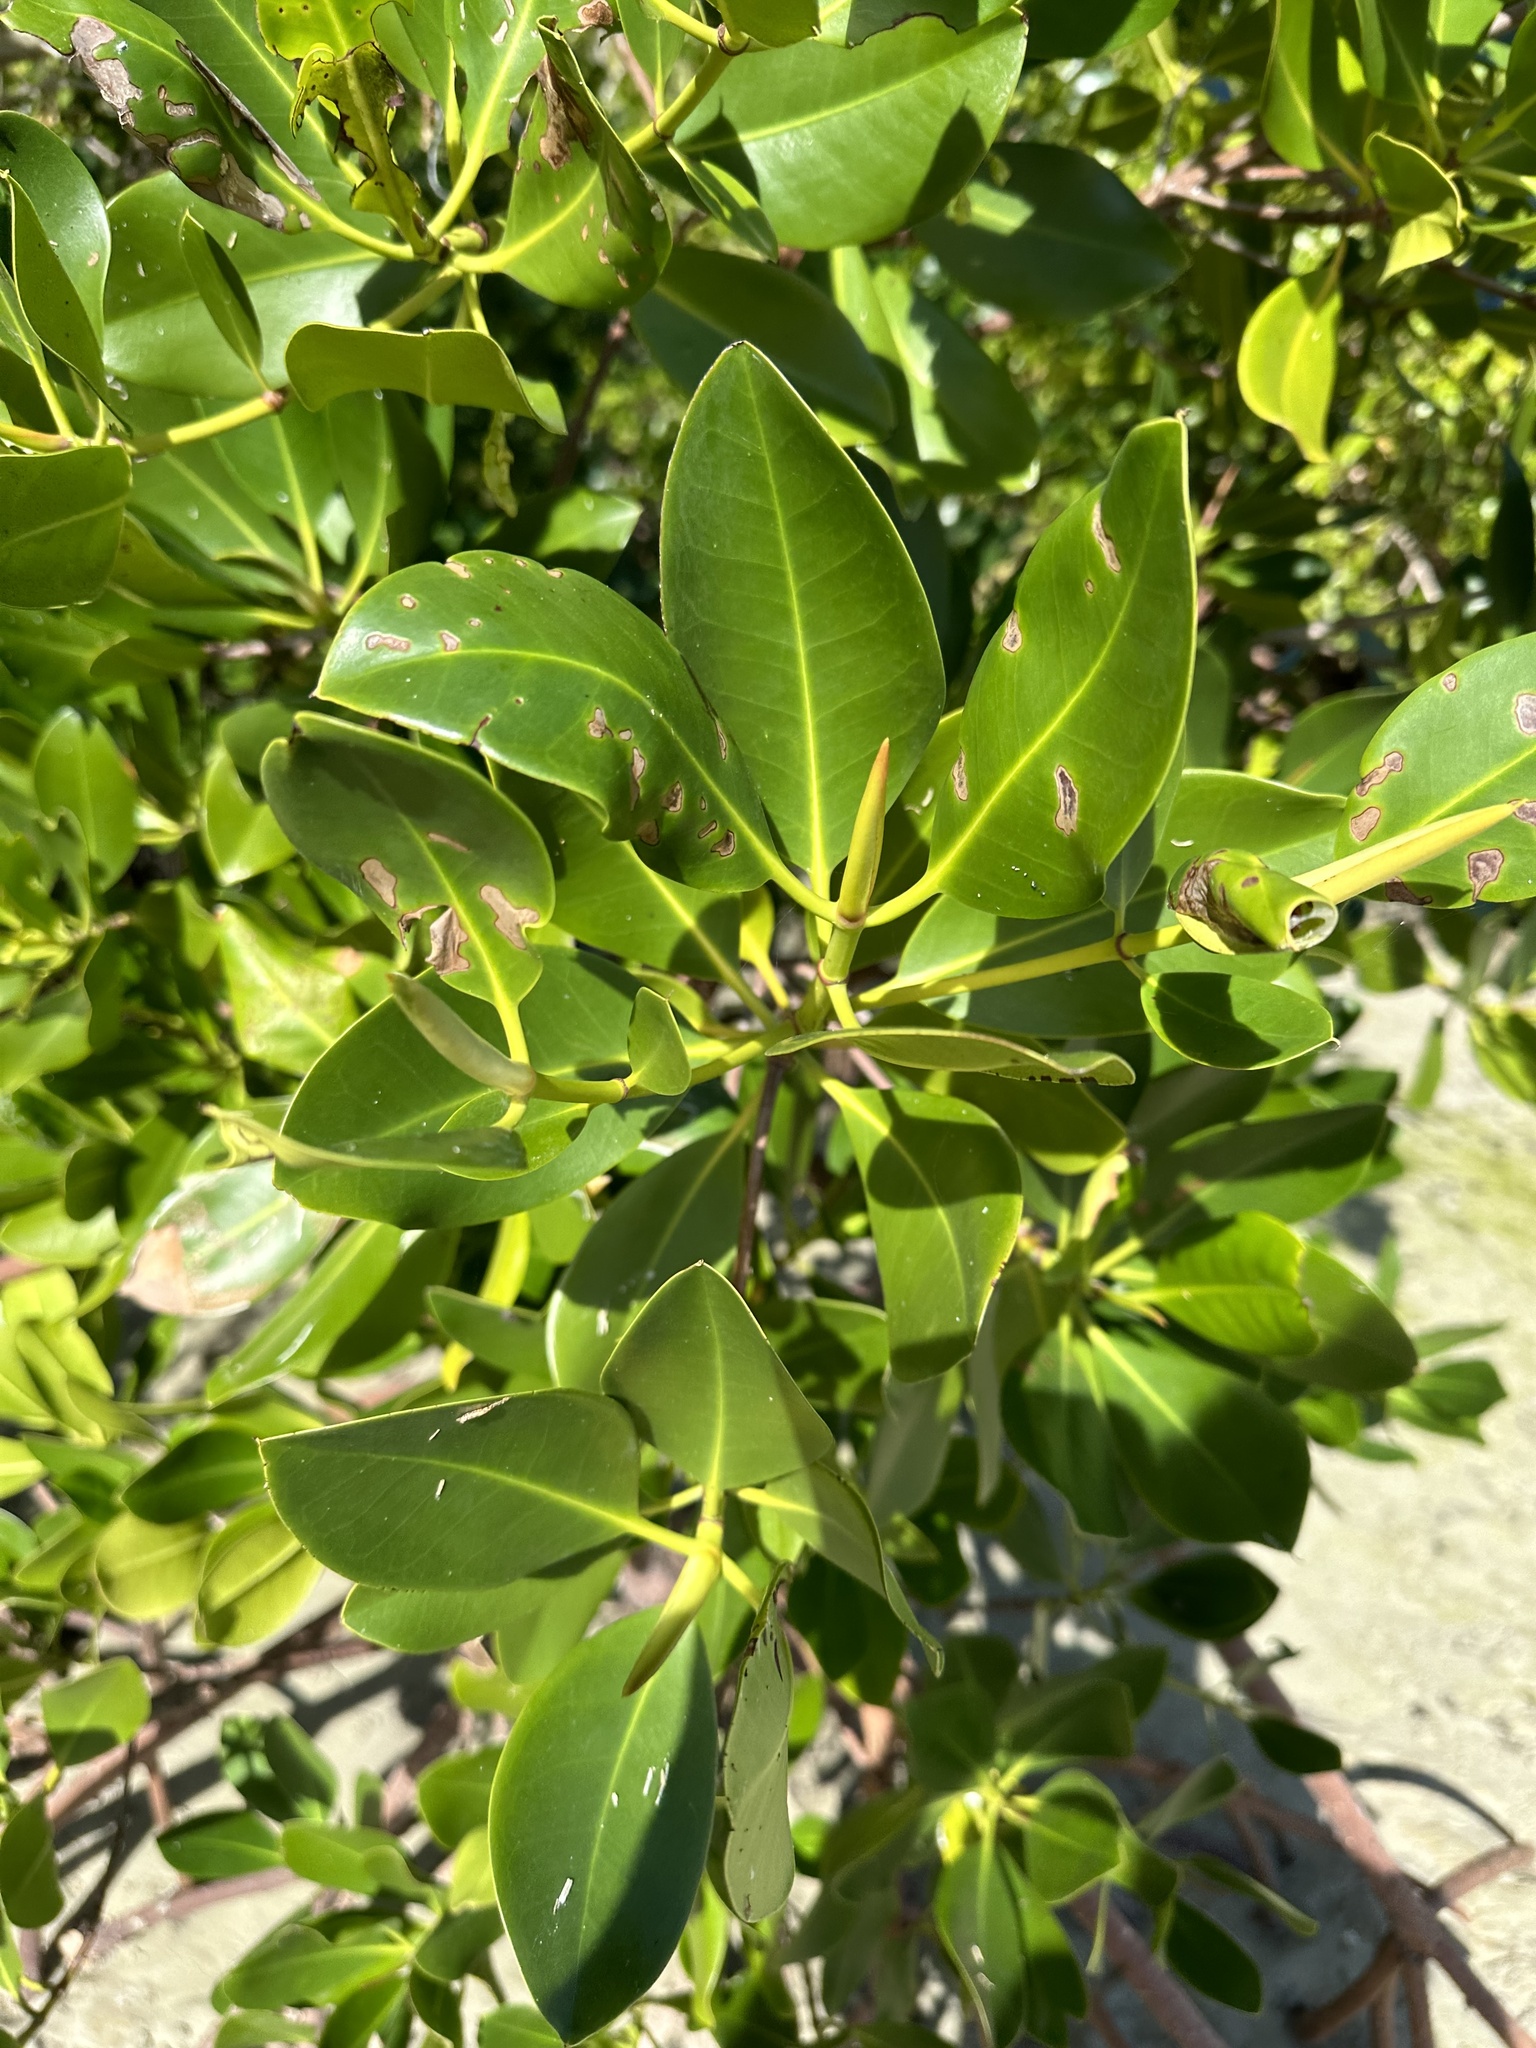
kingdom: Plantae
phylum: Tracheophyta
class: Magnoliopsida
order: Malpighiales
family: Rhizophoraceae
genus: Rhizophora
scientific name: Rhizophora stylosa
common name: Red mangrove
